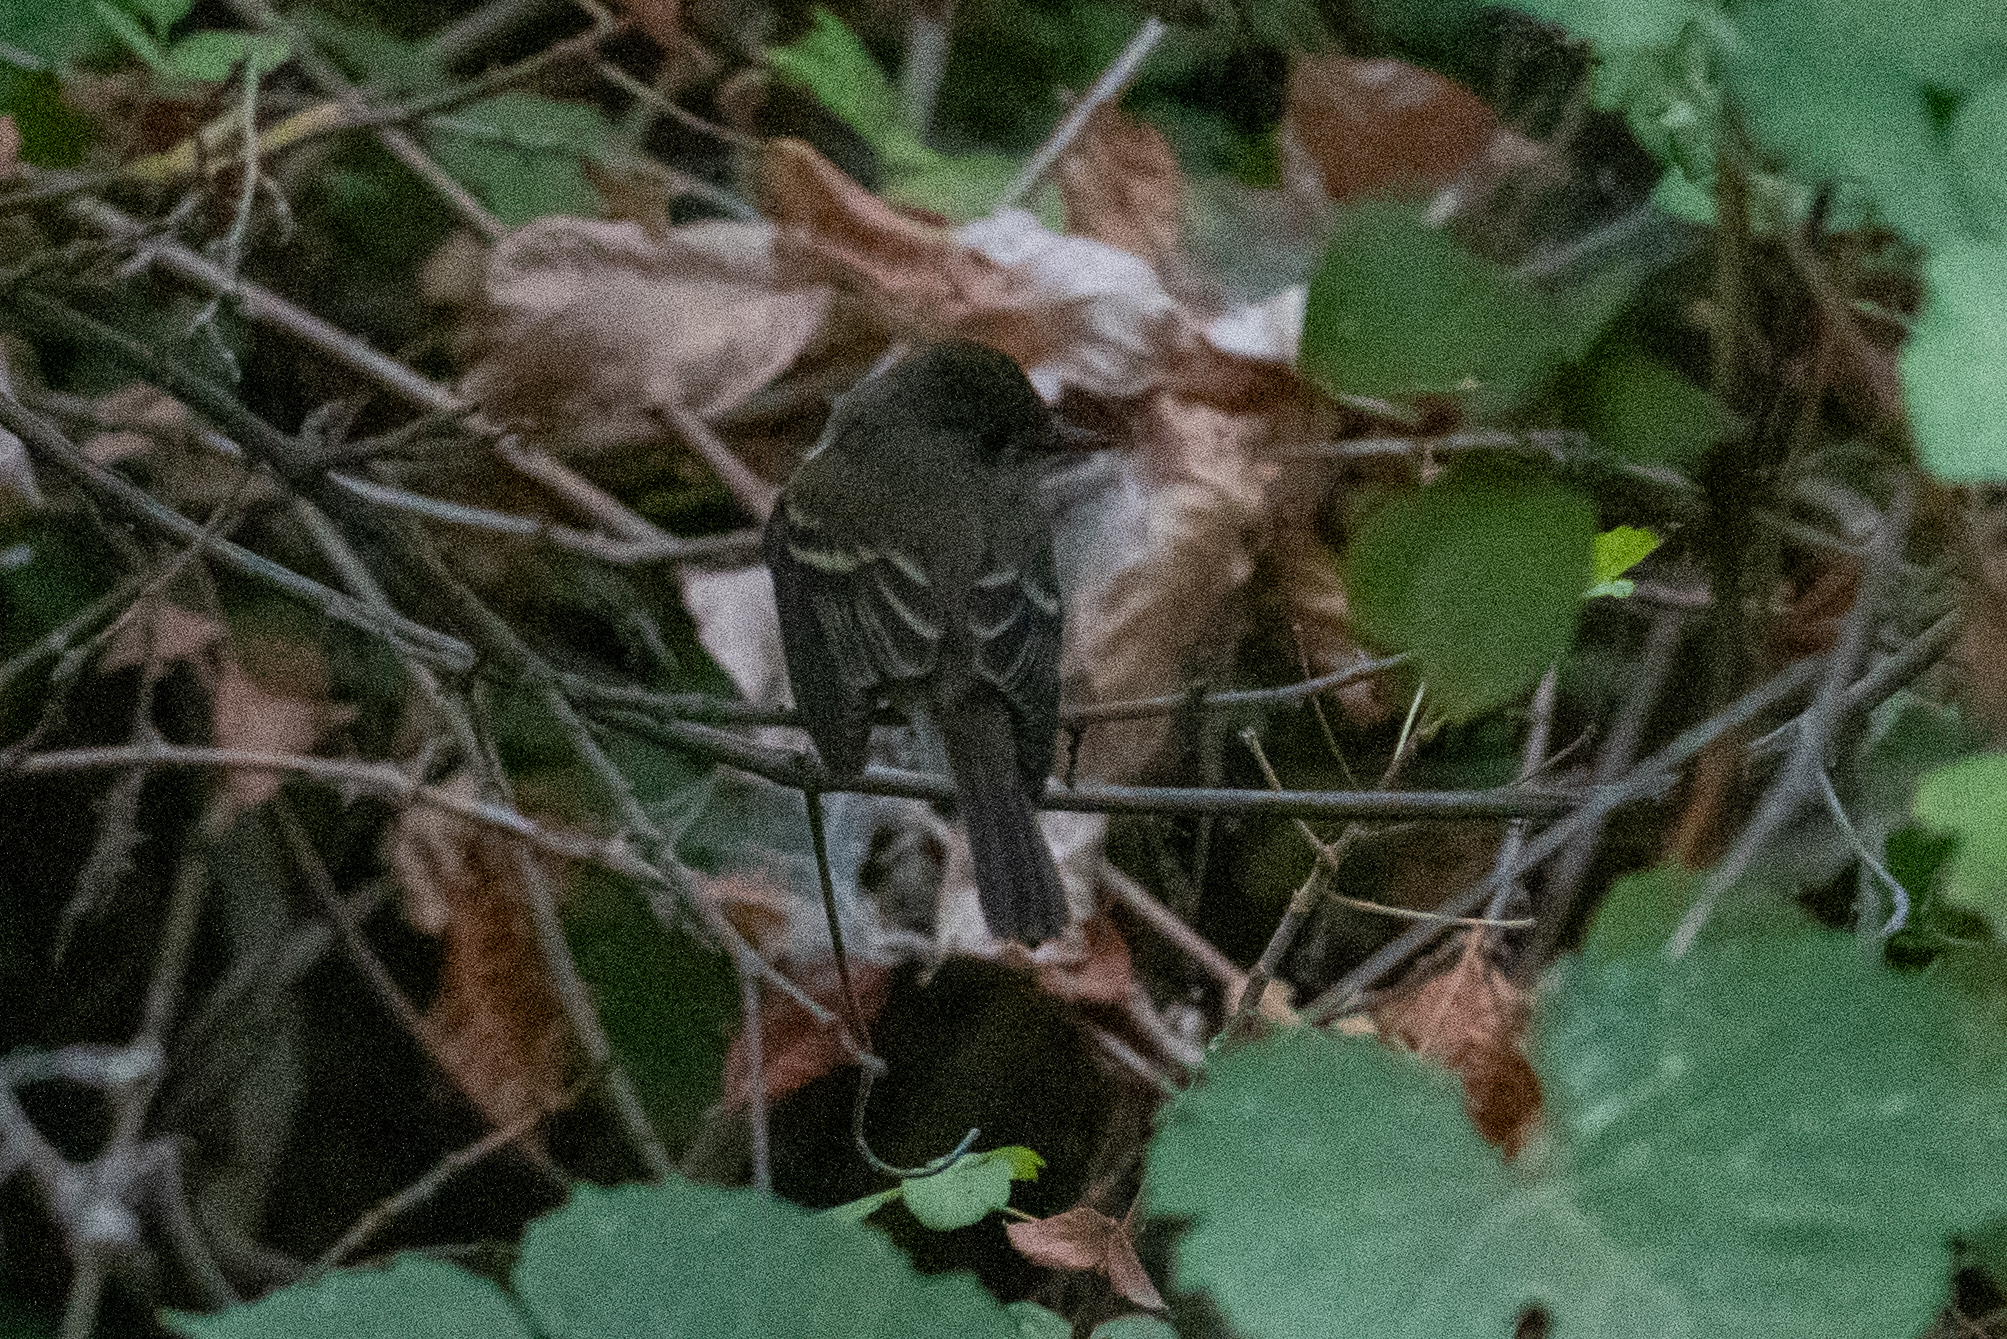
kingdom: Animalia
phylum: Chordata
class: Aves
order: Passeriformes
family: Tyrannidae
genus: Empidonax
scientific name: Empidonax traillii
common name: Willow flycatcher
